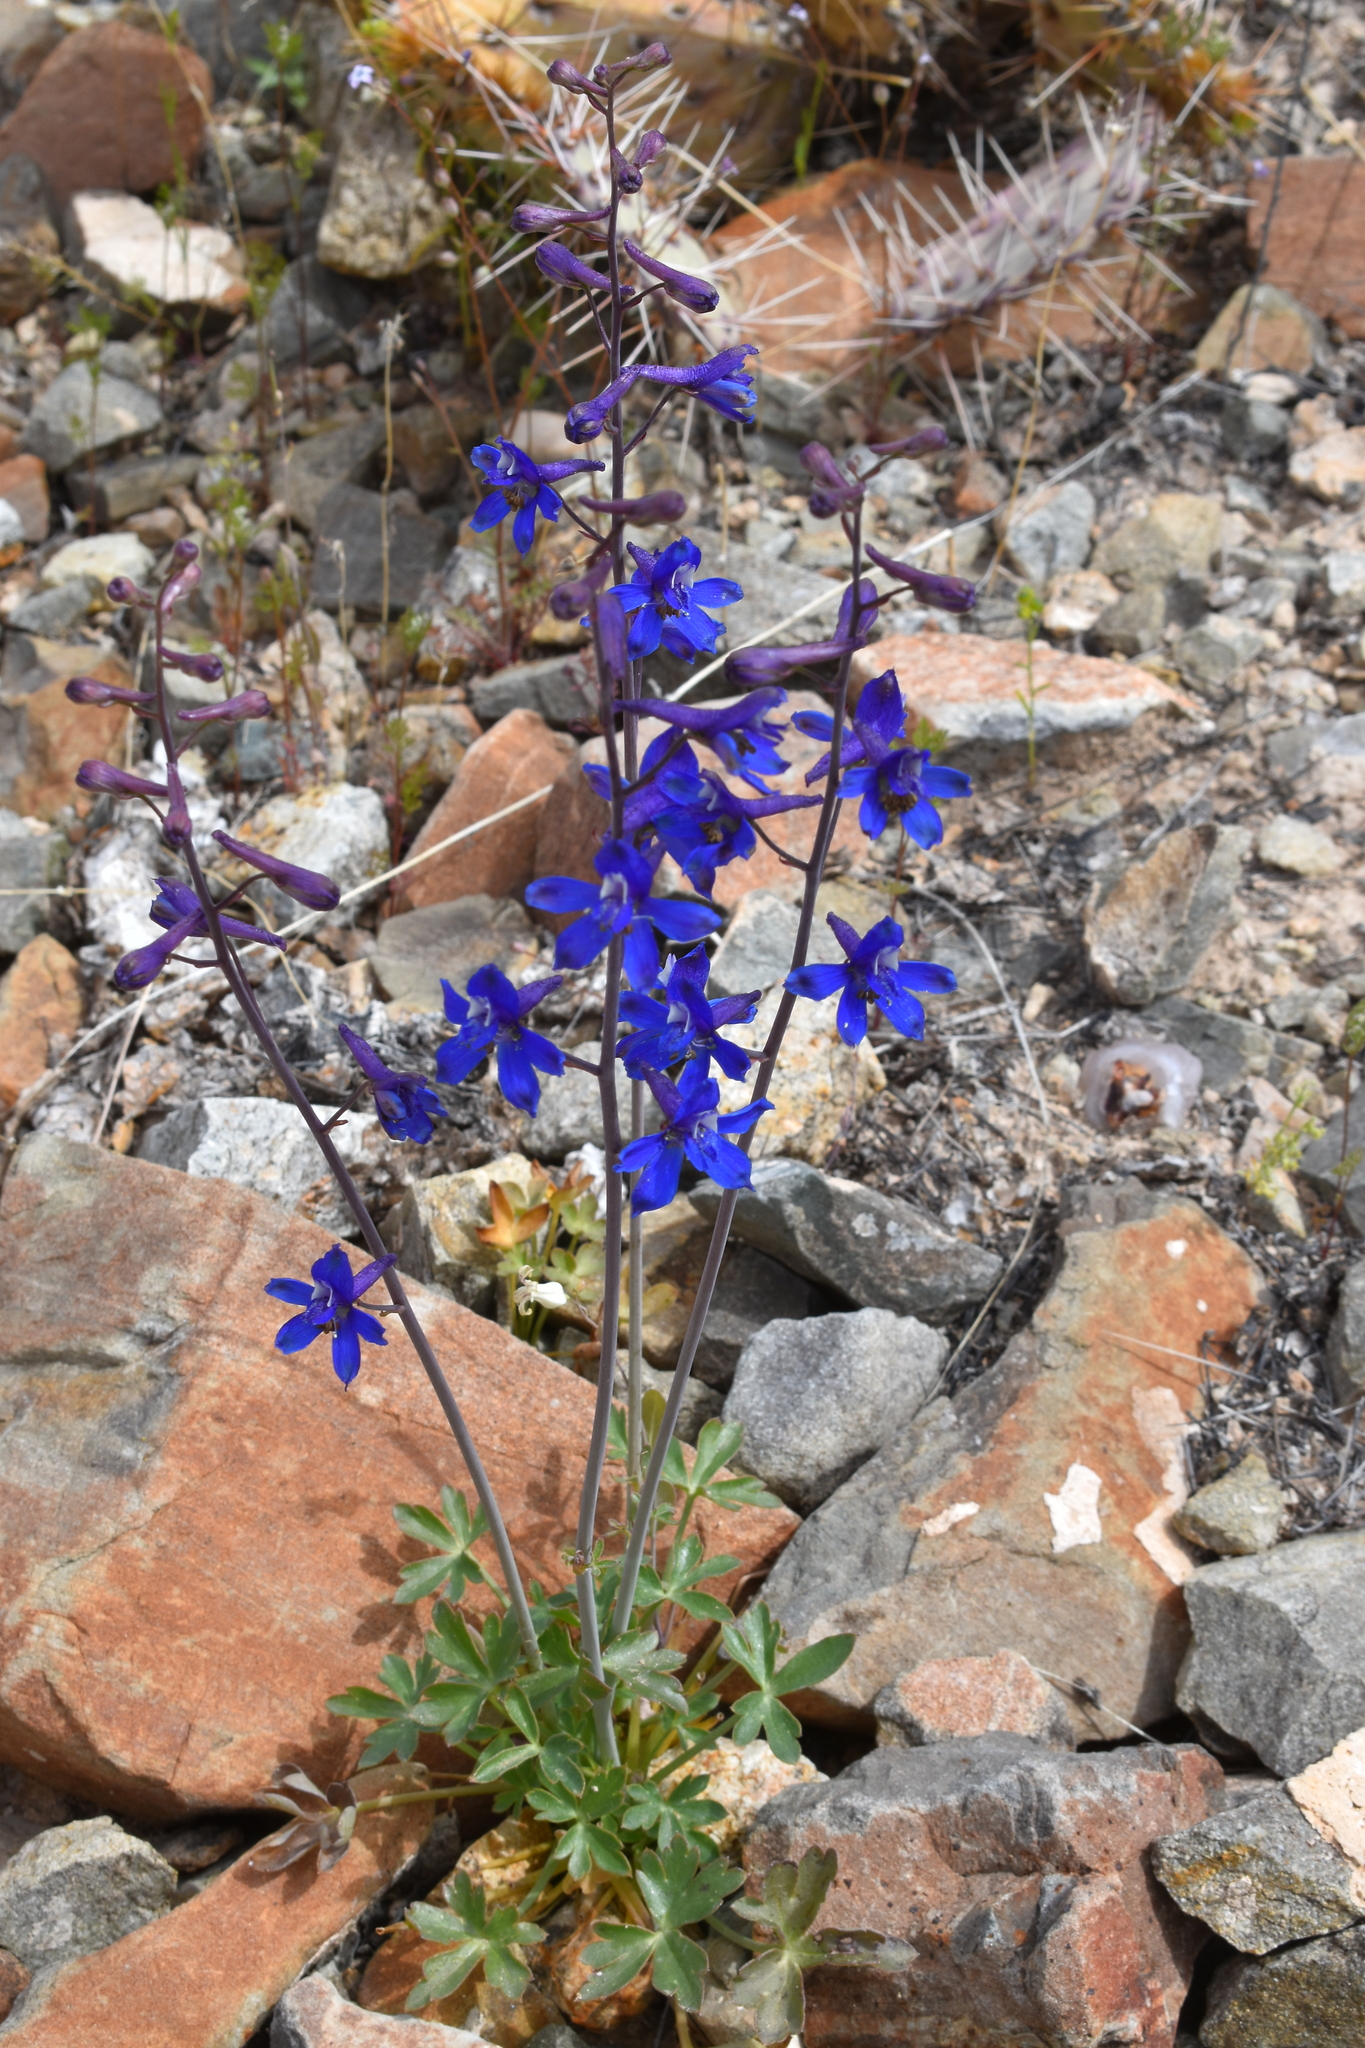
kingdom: Plantae
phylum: Tracheophyta
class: Magnoliopsida
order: Ranunculales
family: Ranunculaceae
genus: Delphinium
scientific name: Delphinium scaposum
